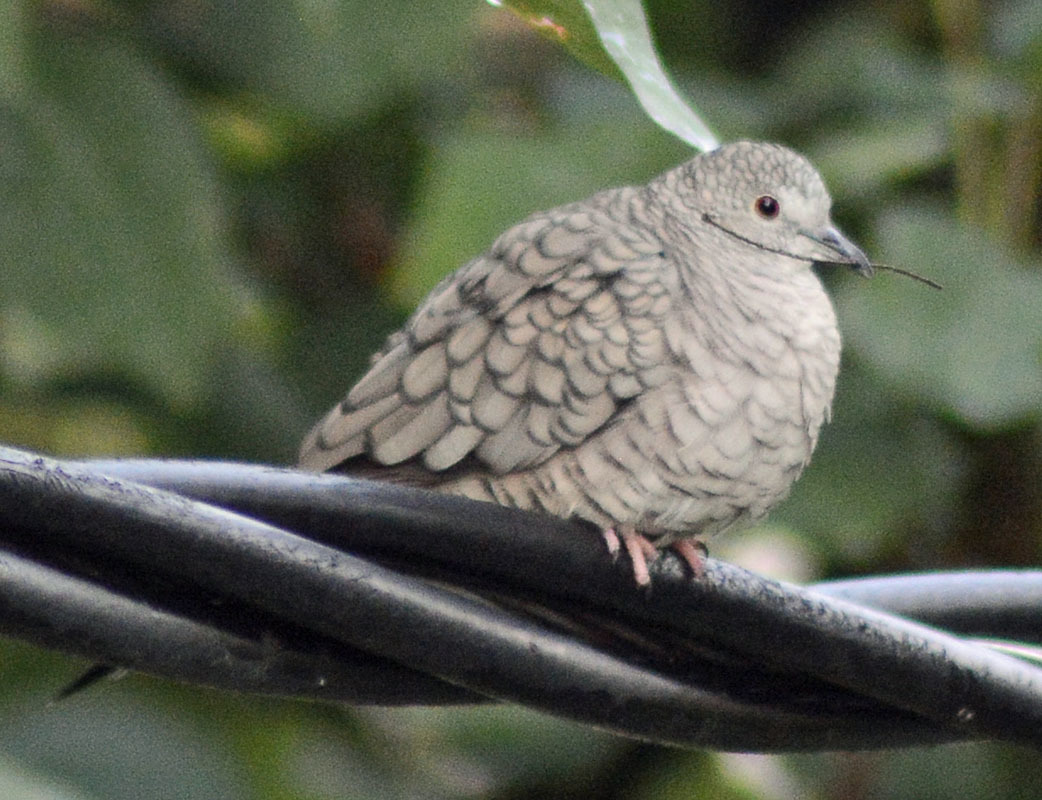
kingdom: Animalia
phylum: Chordata
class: Aves
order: Columbiformes
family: Columbidae
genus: Columbina
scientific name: Columbina inca
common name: Inca dove
